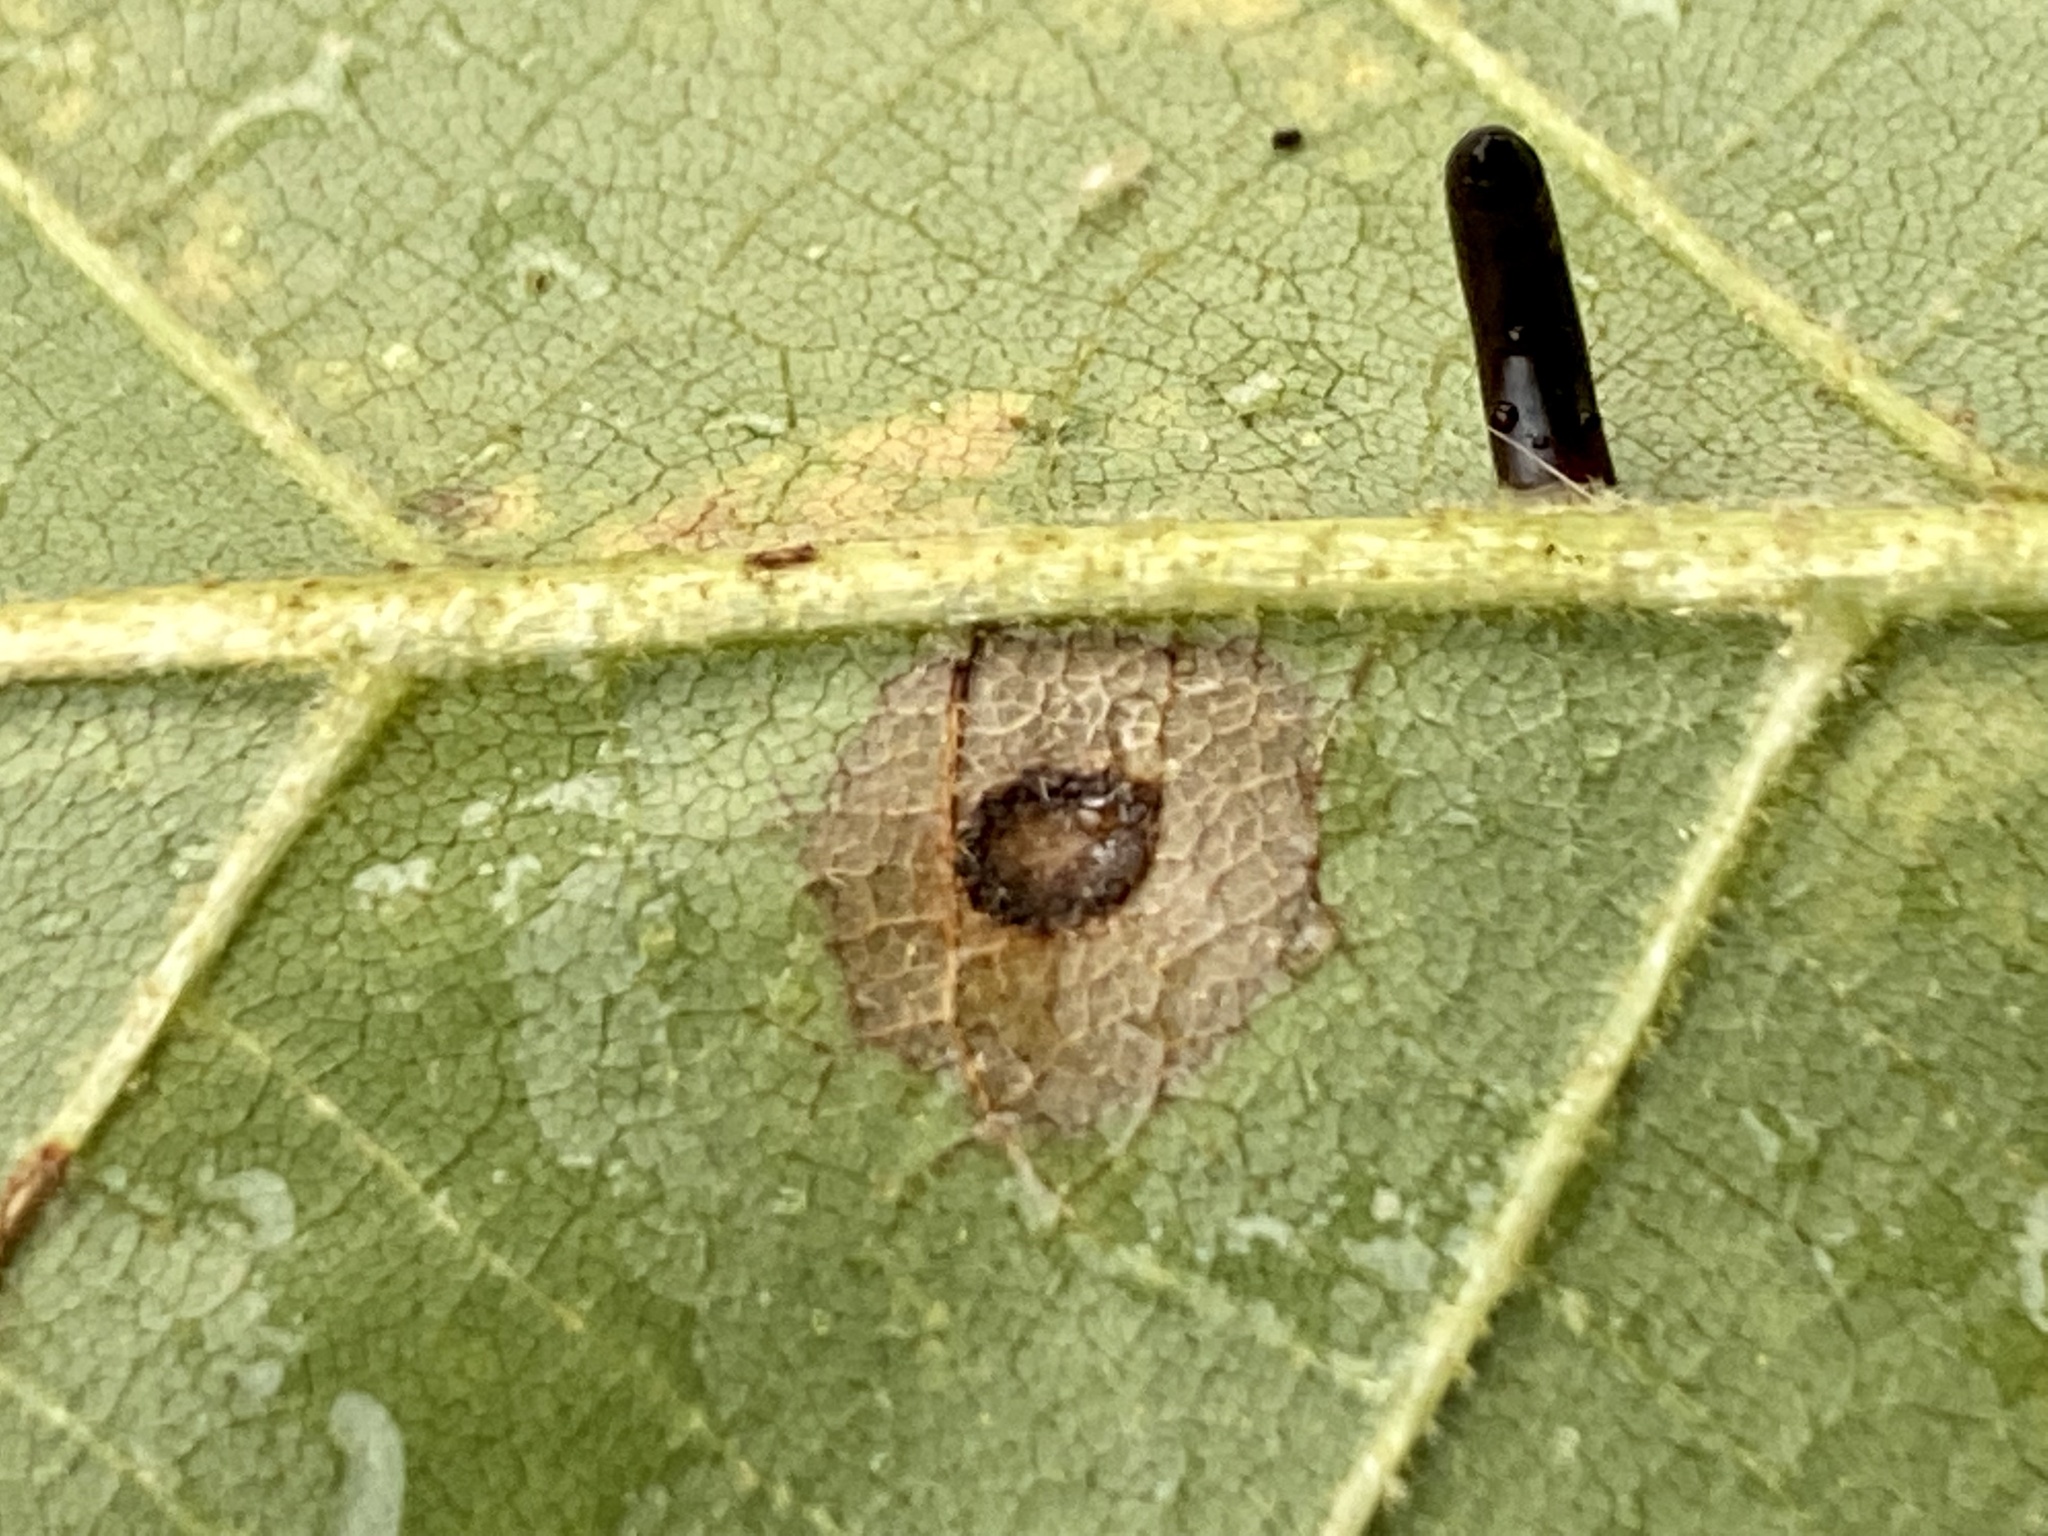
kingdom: Animalia
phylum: Arthropoda
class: Insecta
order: Diptera
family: Cecidomyiidae
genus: Gliaspilota
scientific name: Gliaspilota glutinosa
